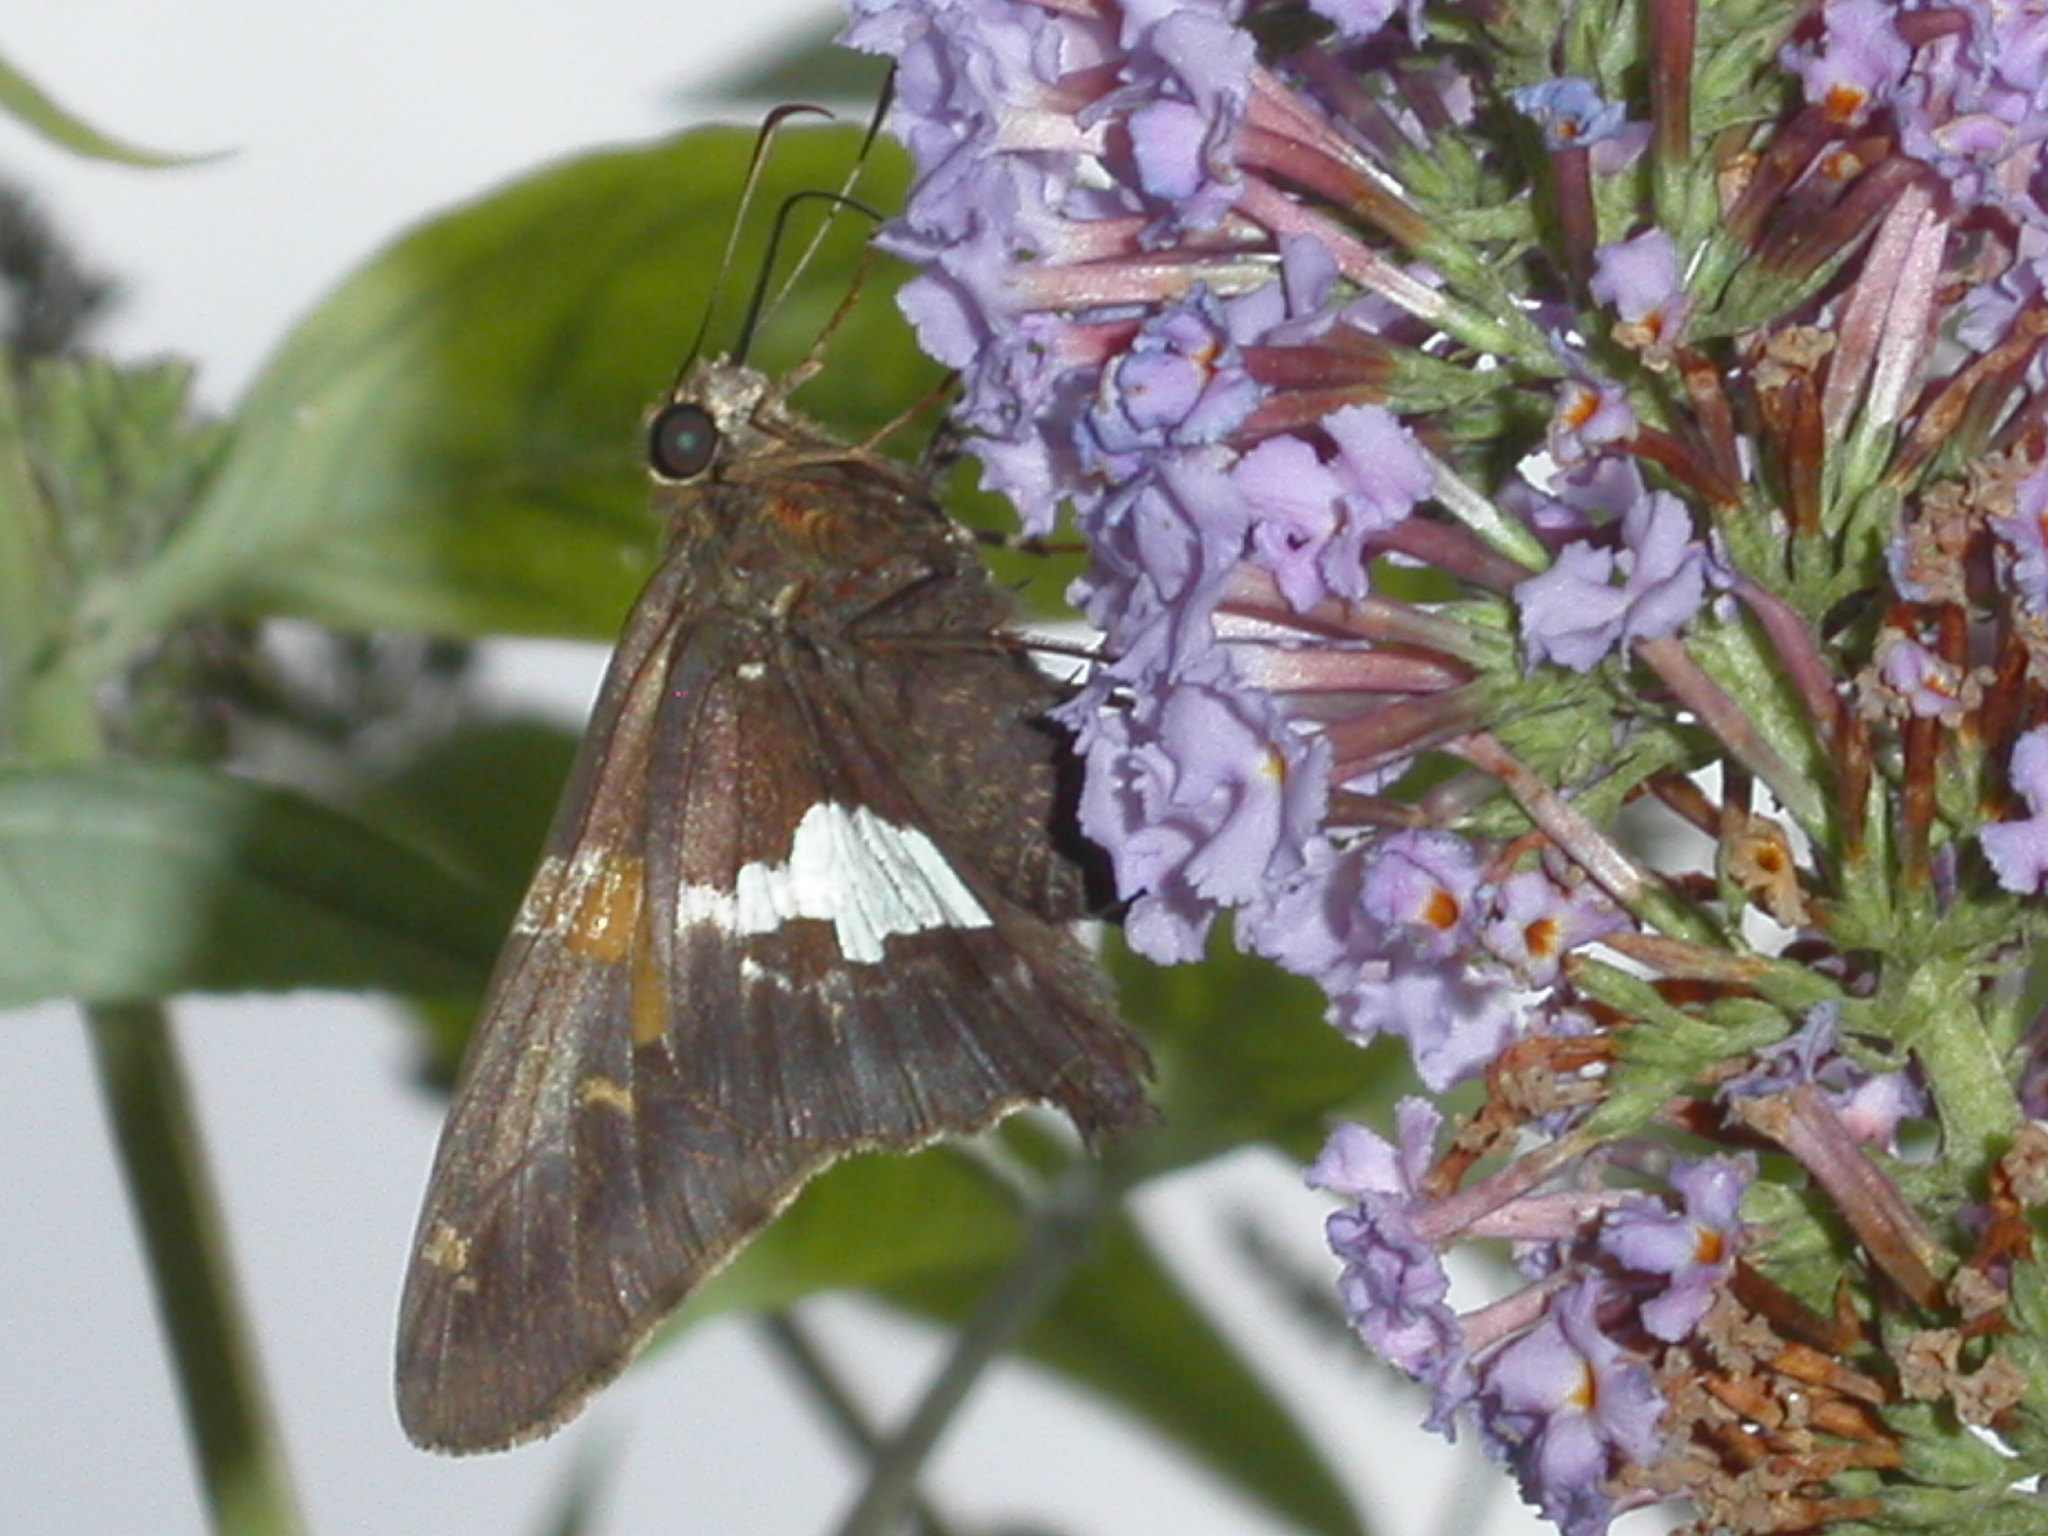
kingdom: Animalia
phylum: Arthropoda
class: Insecta
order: Lepidoptera
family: Hesperiidae
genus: Epargyreus
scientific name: Epargyreus clarus
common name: Silver-spotted skipper
